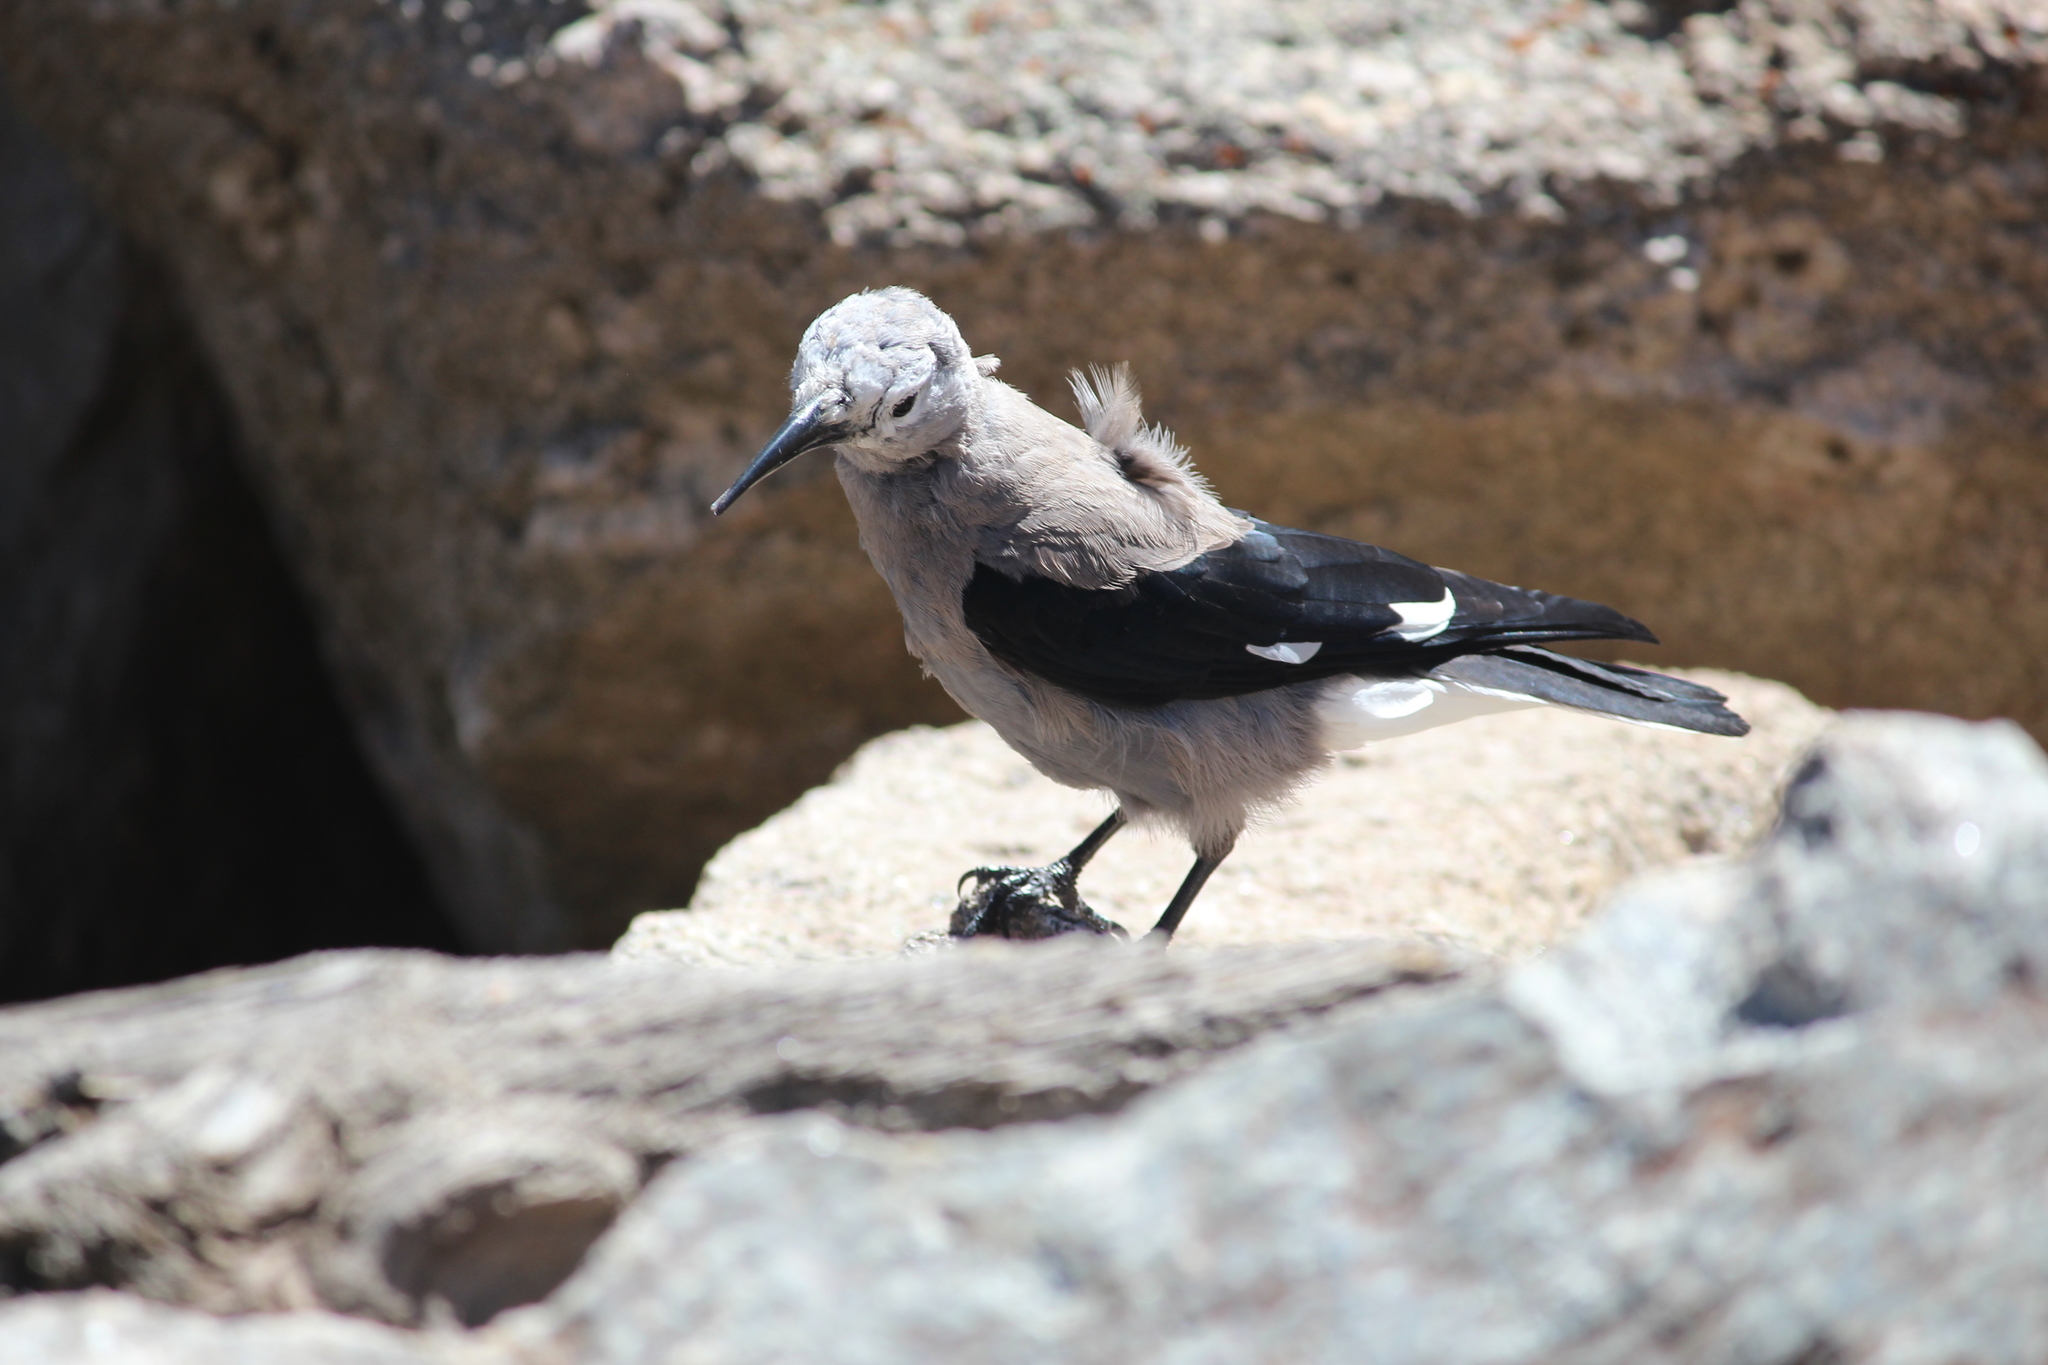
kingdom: Animalia
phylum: Chordata
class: Aves
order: Passeriformes
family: Corvidae
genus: Nucifraga
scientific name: Nucifraga columbiana
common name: Clark's nutcracker
